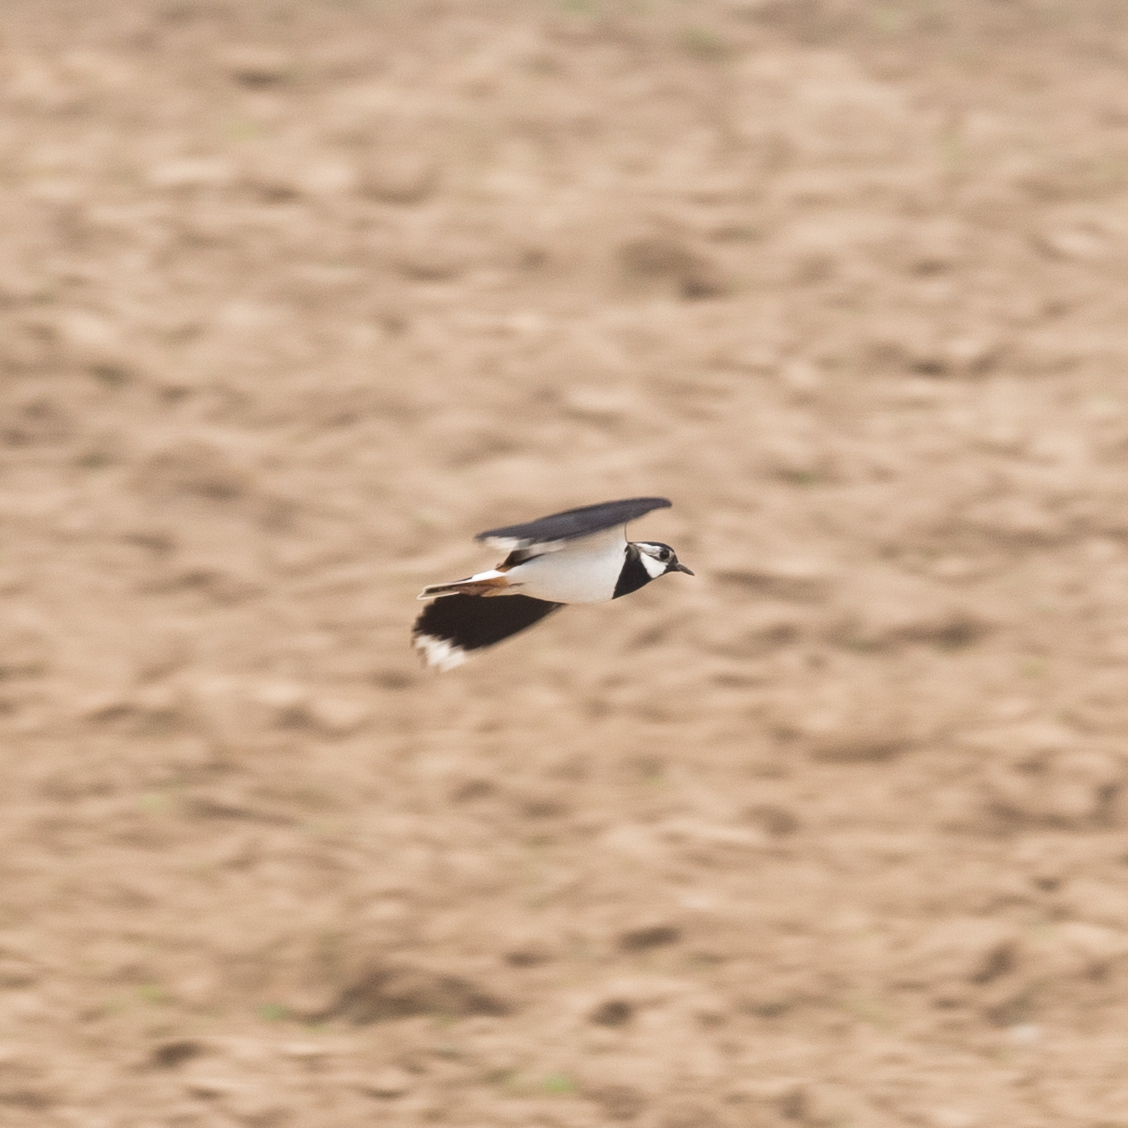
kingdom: Animalia
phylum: Chordata
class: Aves
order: Charadriiformes
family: Charadriidae
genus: Vanellus
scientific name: Vanellus vanellus
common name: Northern lapwing
